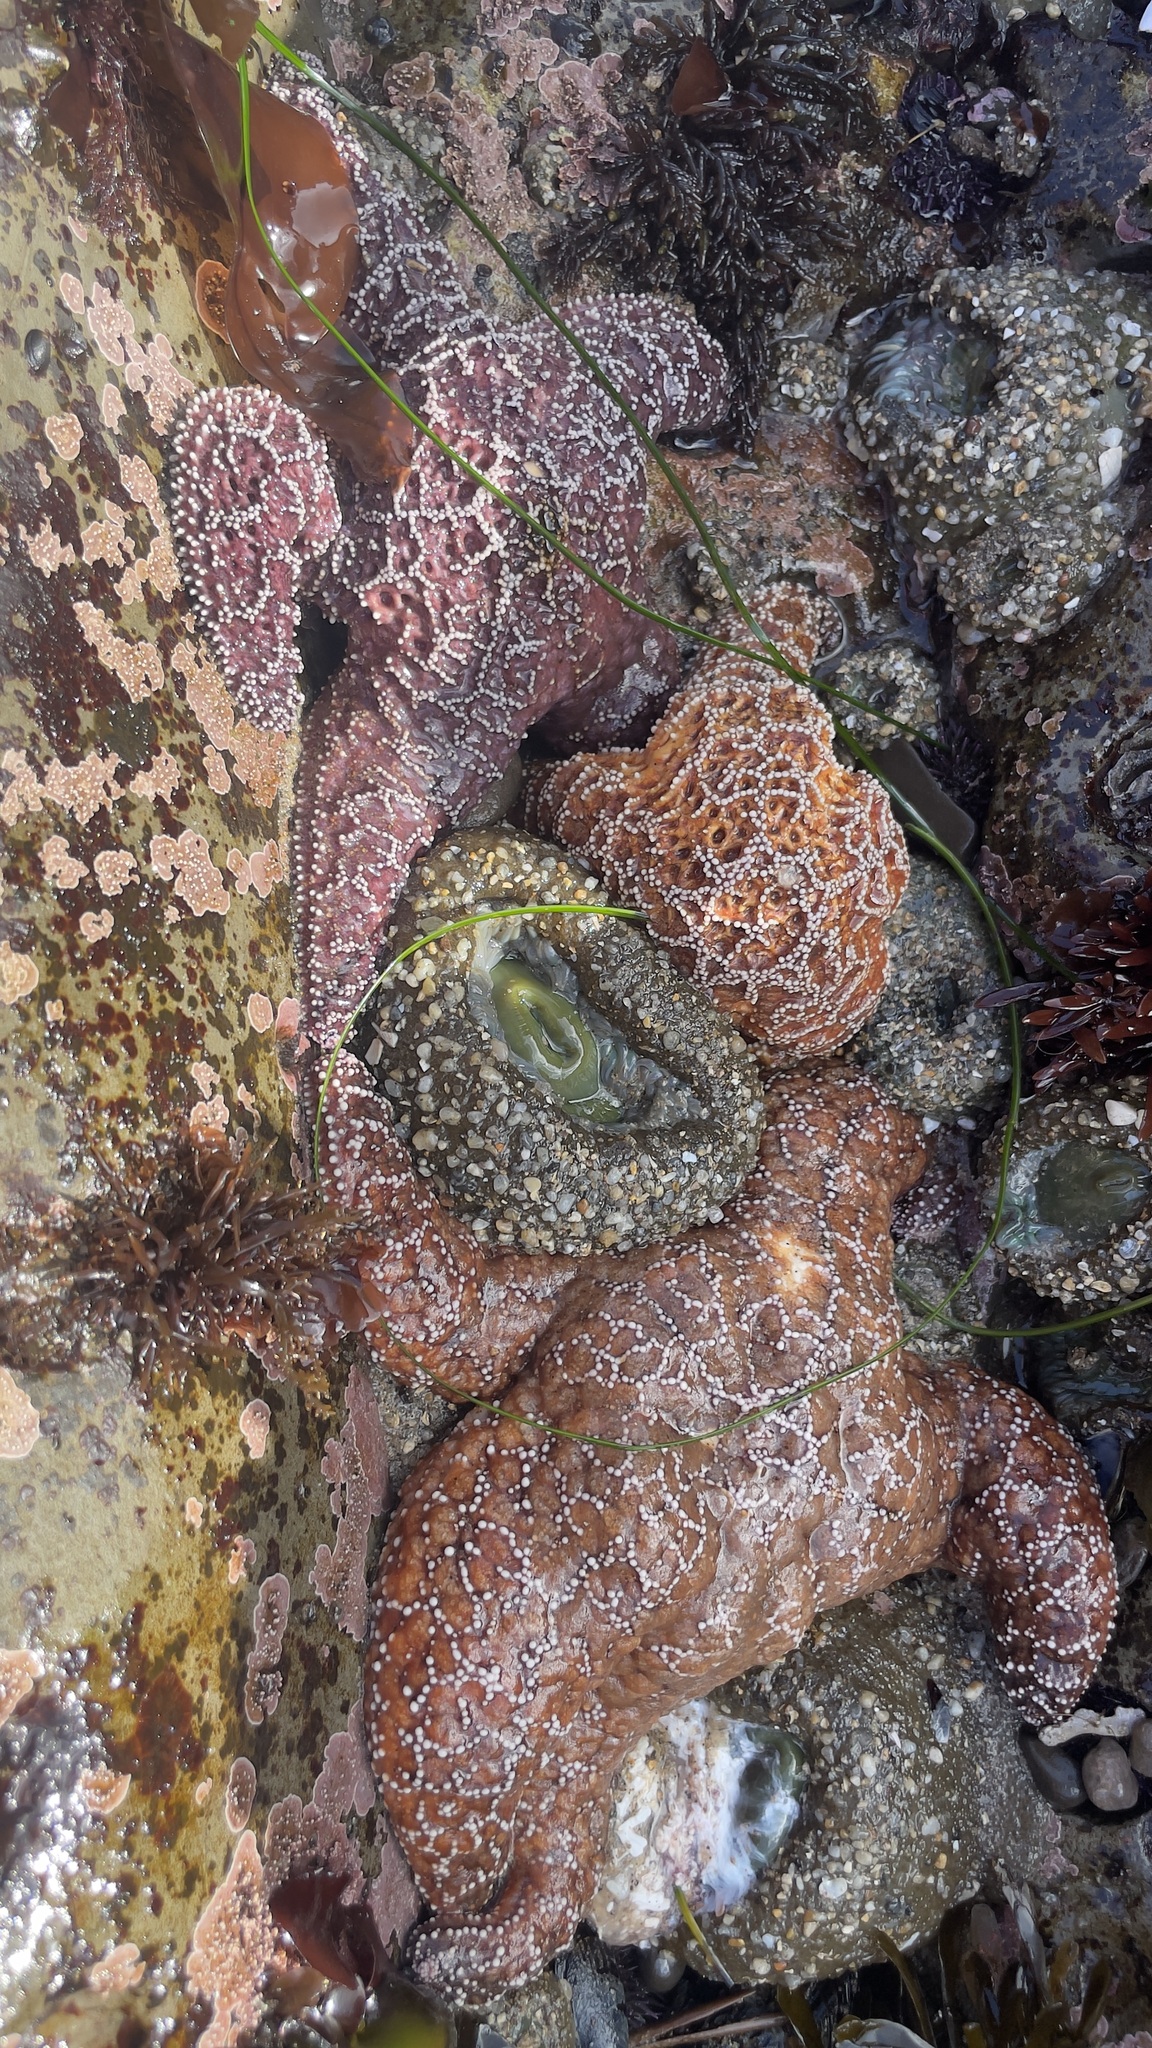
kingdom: Animalia
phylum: Echinodermata
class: Asteroidea
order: Forcipulatida
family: Asteriidae
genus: Pisaster
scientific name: Pisaster ochraceus
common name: Ochre stars
